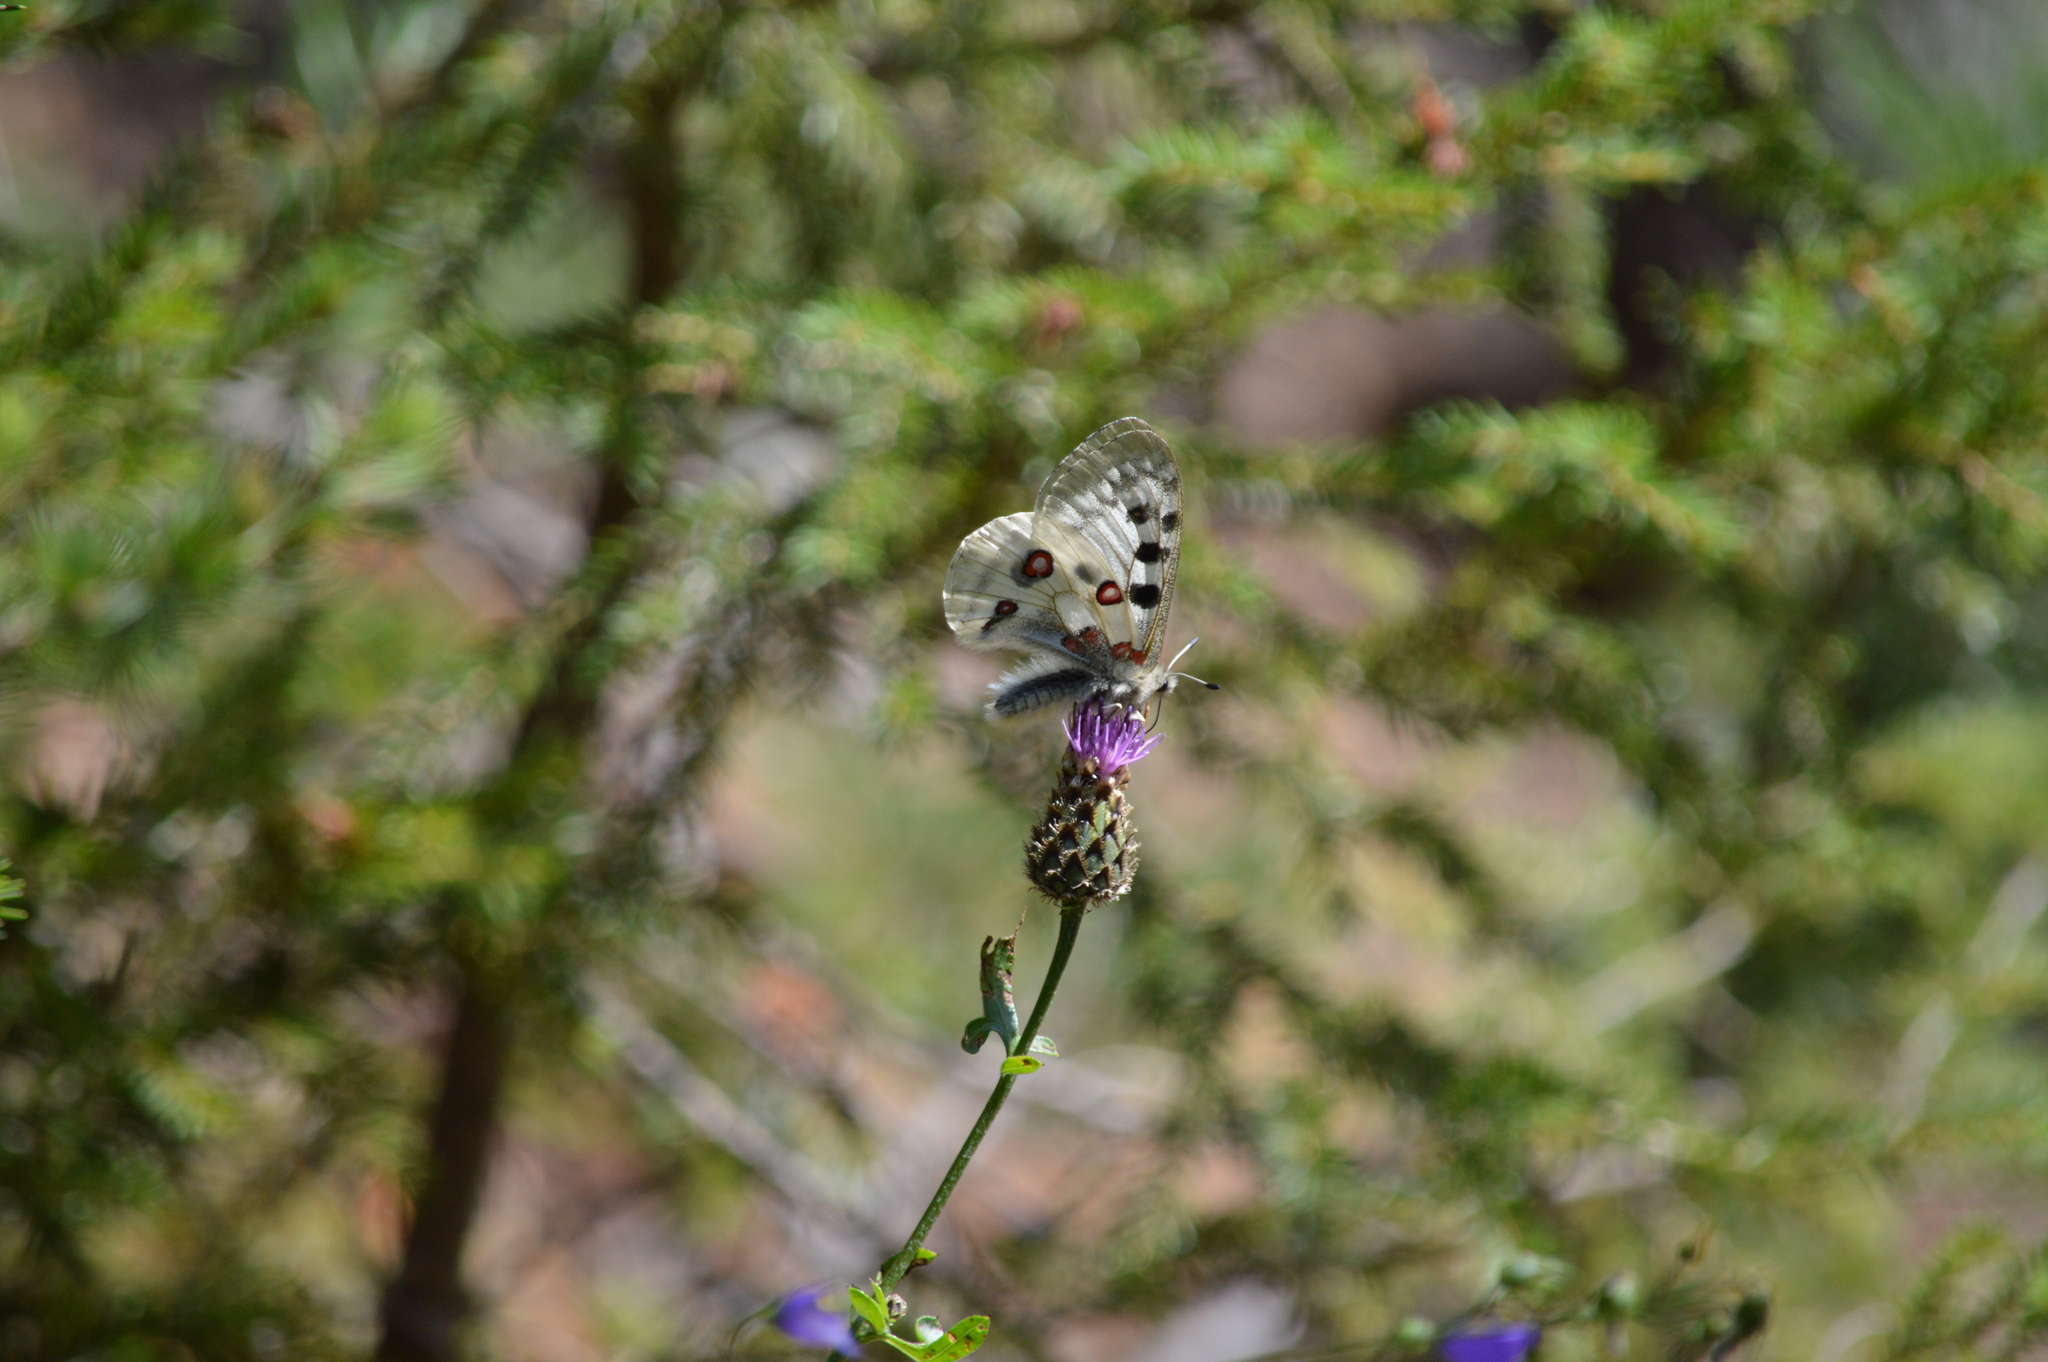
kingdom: Animalia
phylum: Arthropoda
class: Insecta
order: Lepidoptera
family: Papilionidae
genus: Parnassius
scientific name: Parnassius apollo
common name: Apollo
